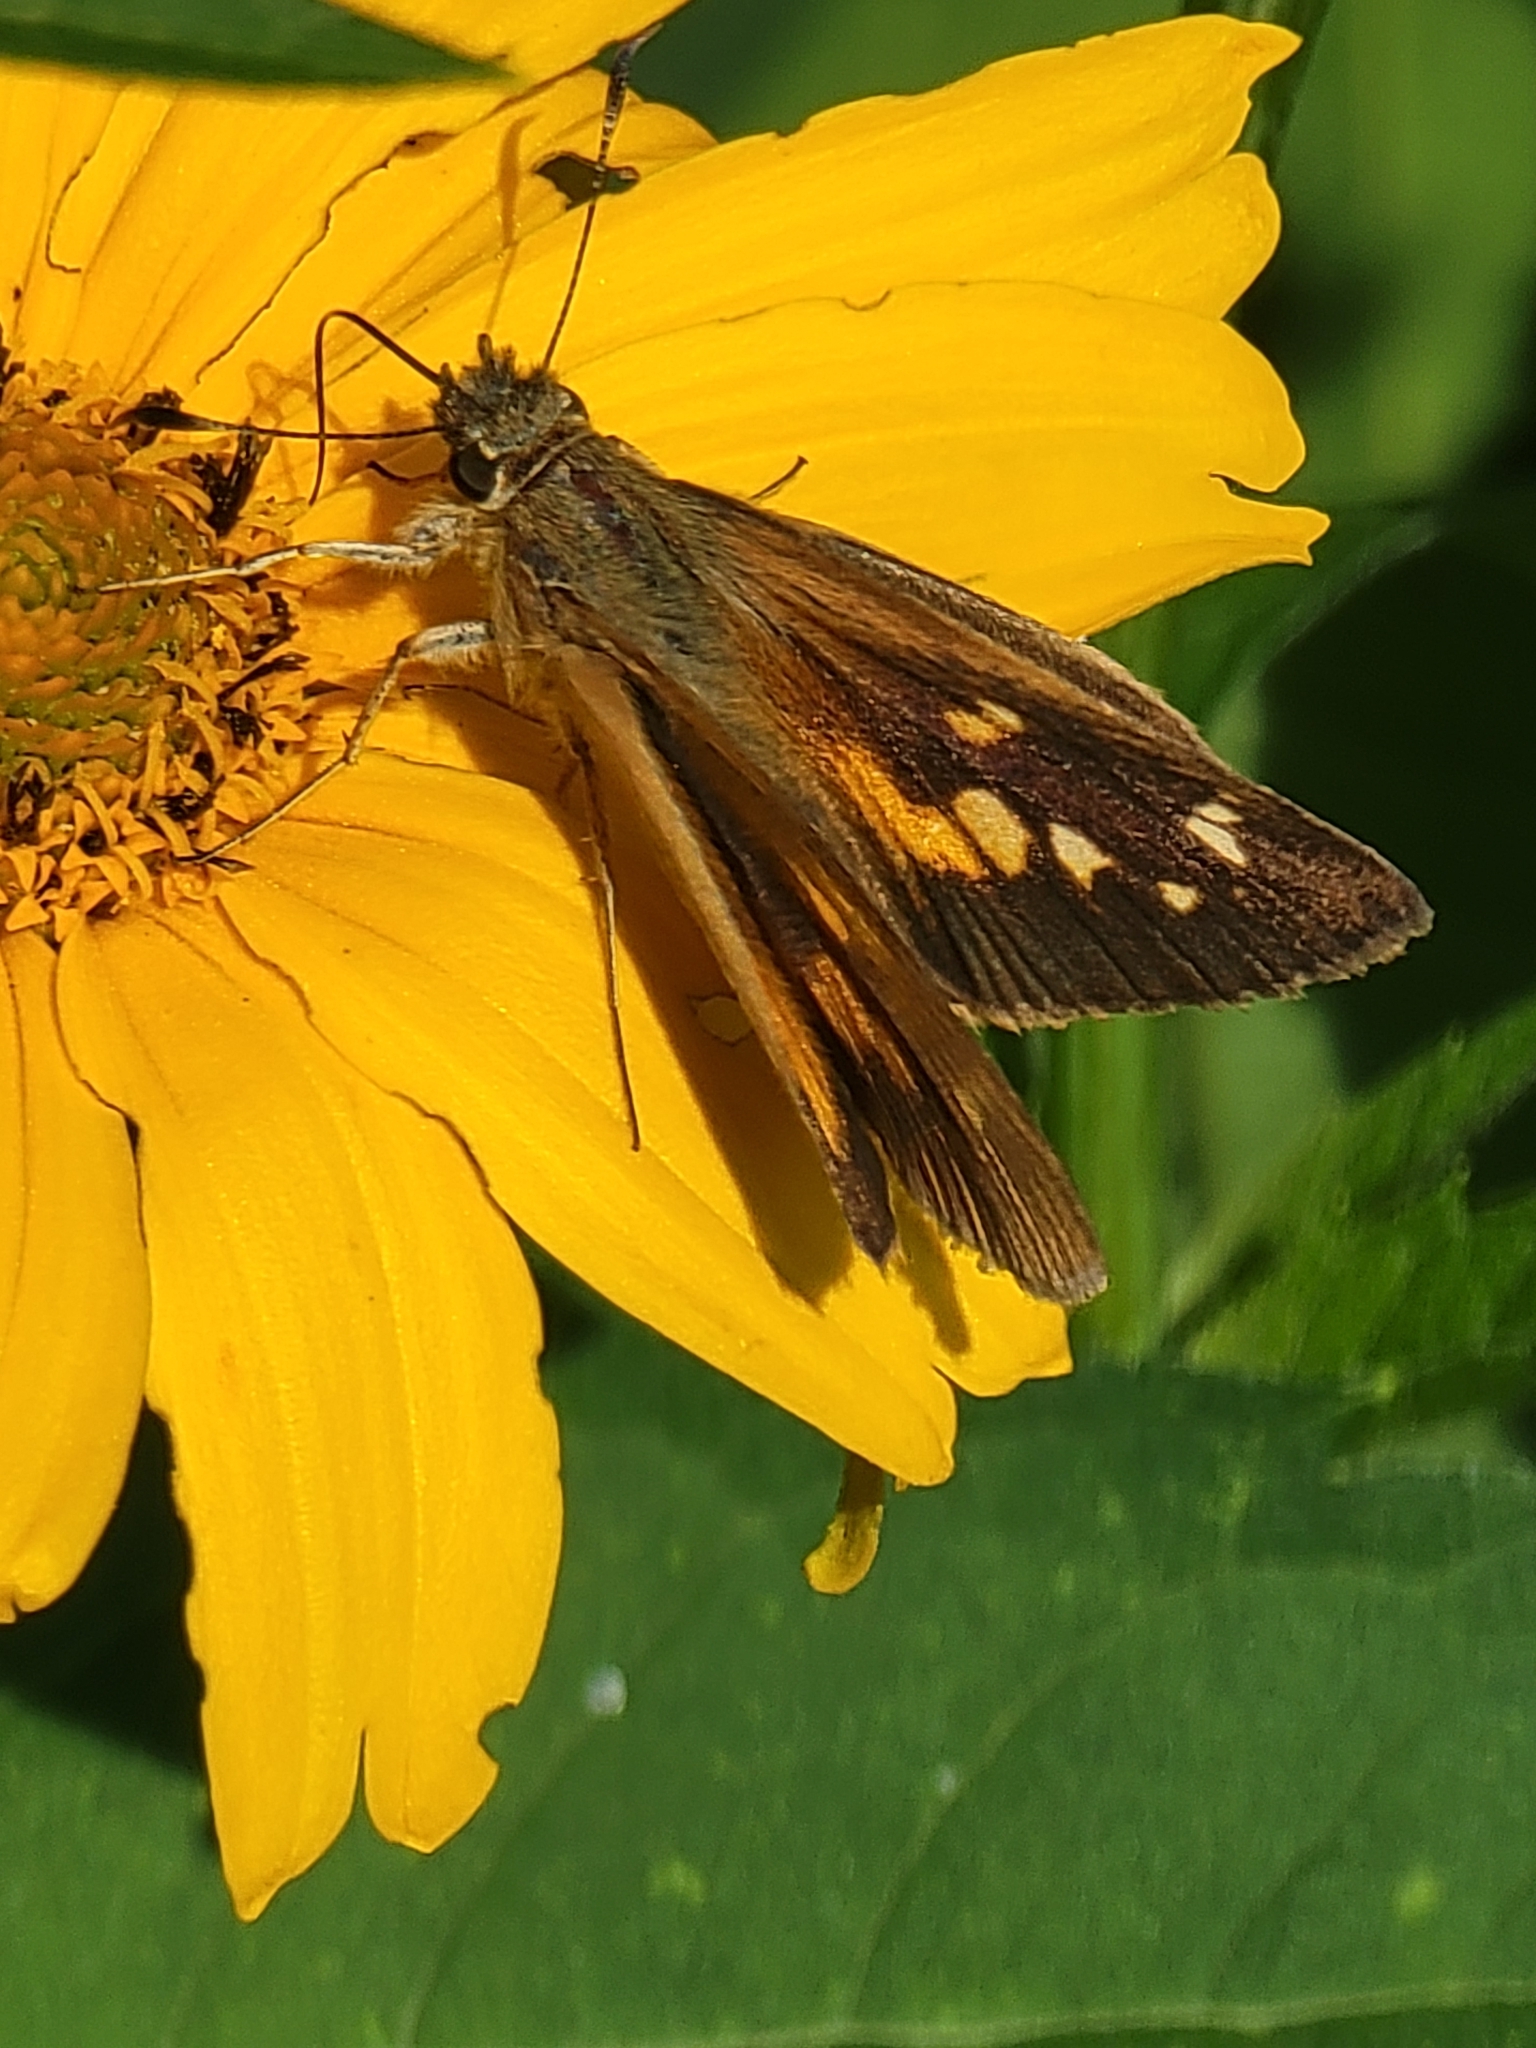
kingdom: Animalia
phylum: Arthropoda
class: Insecta
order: Lepidoptera
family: Hesperiidae
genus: Poanes
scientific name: Poanes viator
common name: Broad-winged skipper
